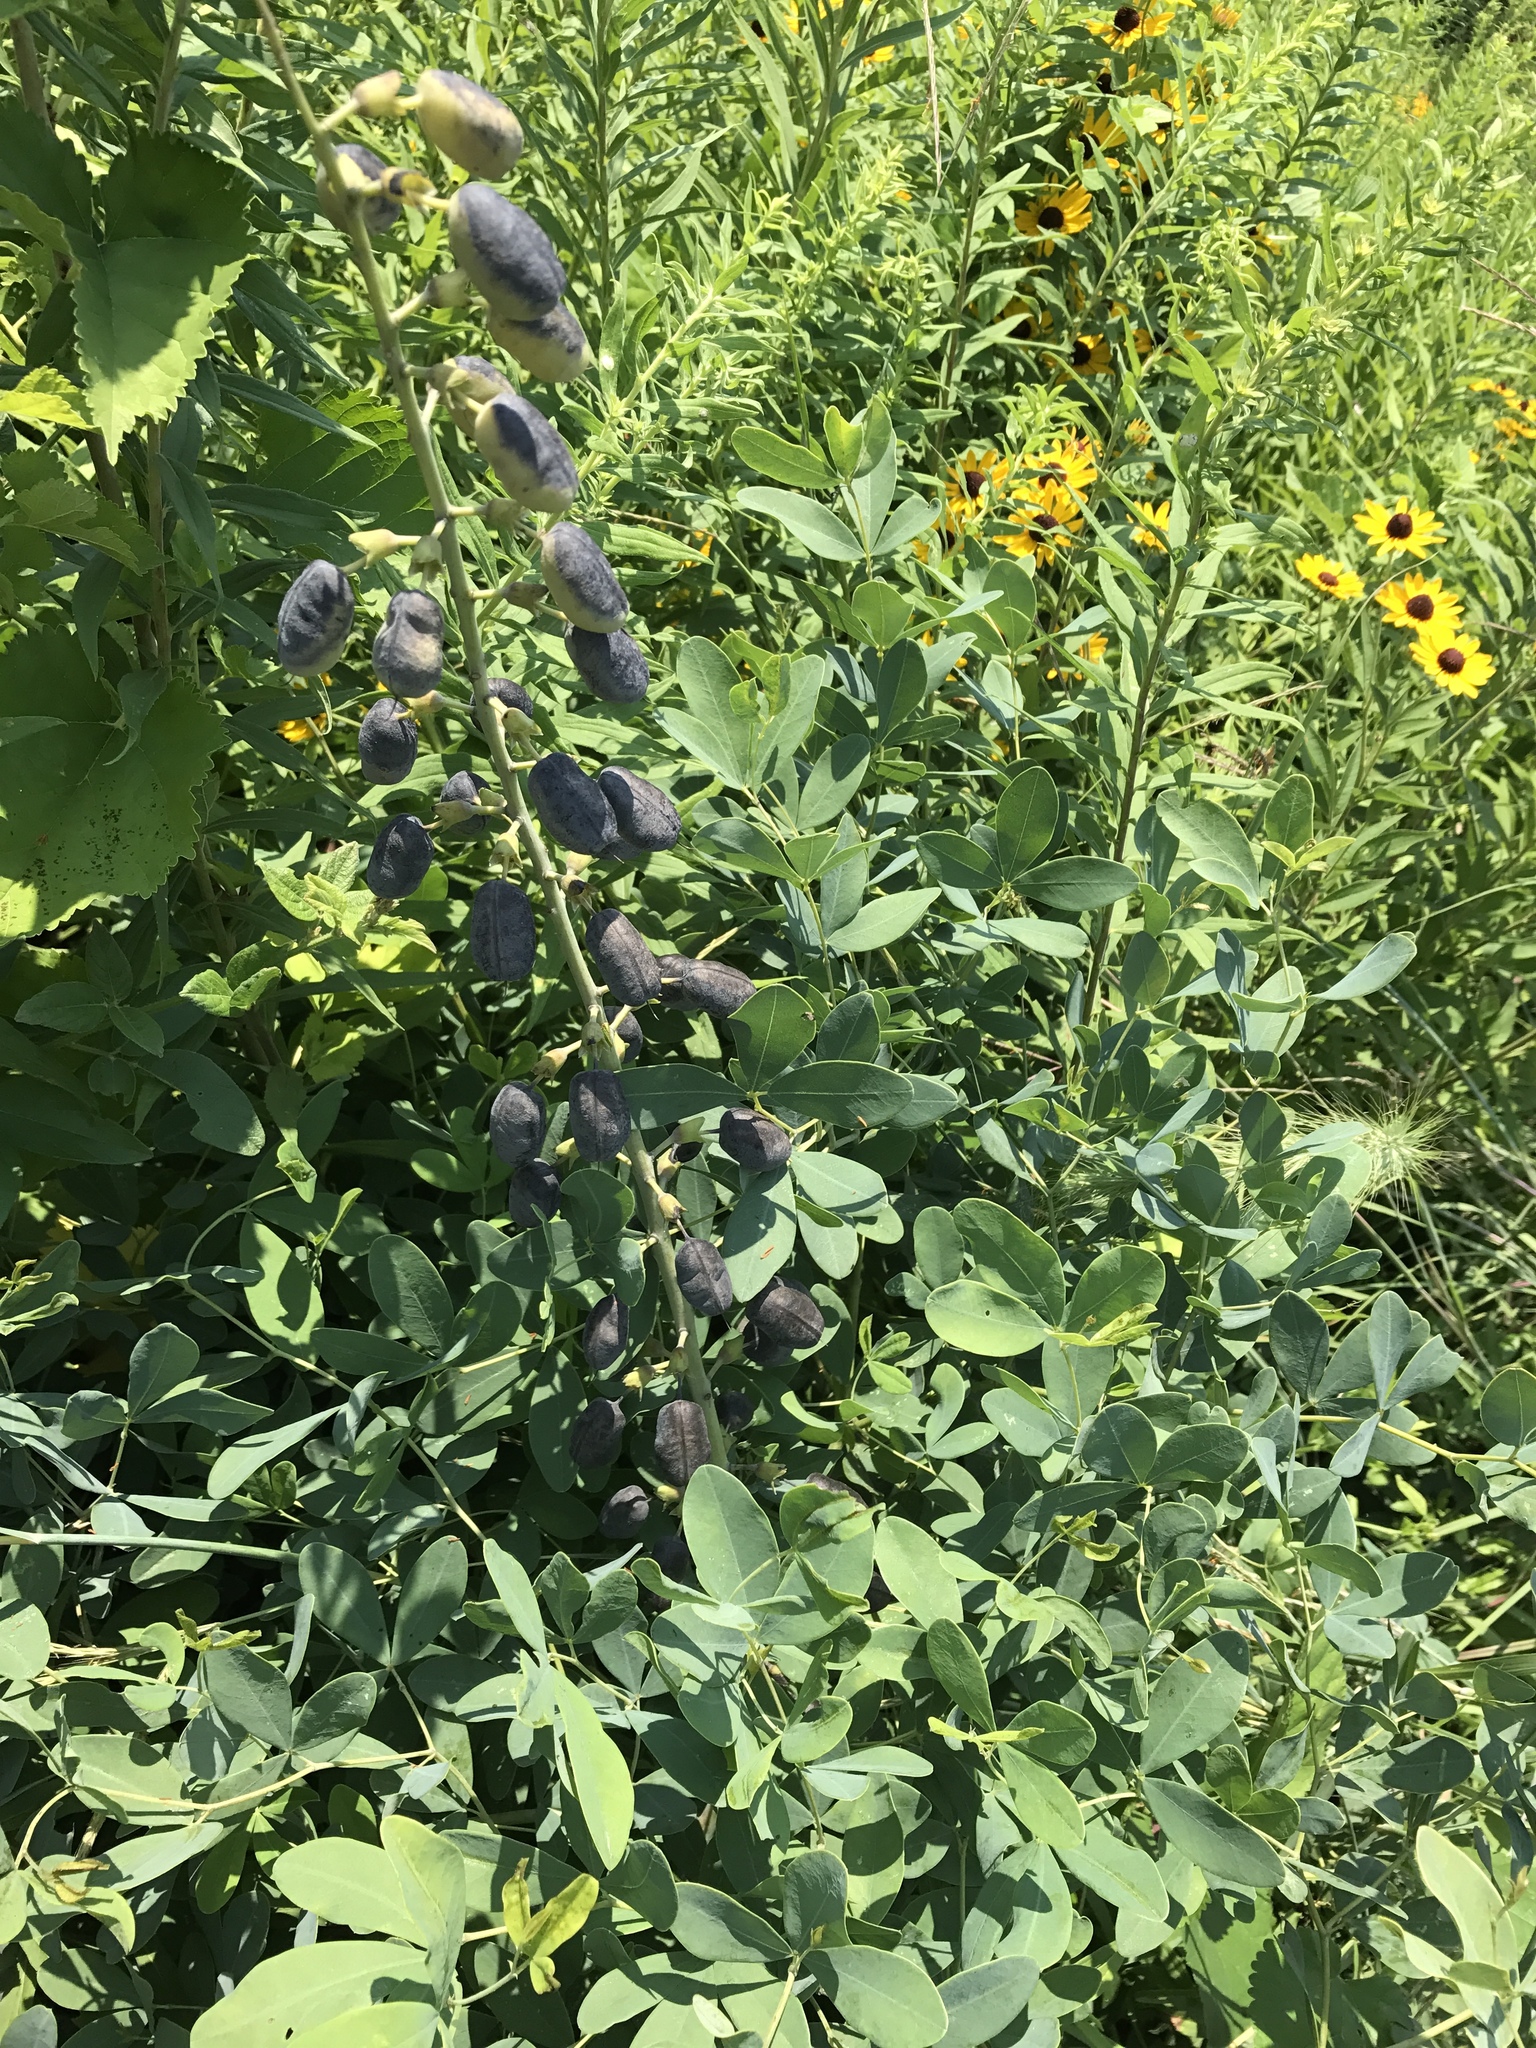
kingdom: Plantae
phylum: Tracheophyta
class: Magnoliopsida
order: Fabales
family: Fabaceae
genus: Baptisia
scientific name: Baptisia alba
